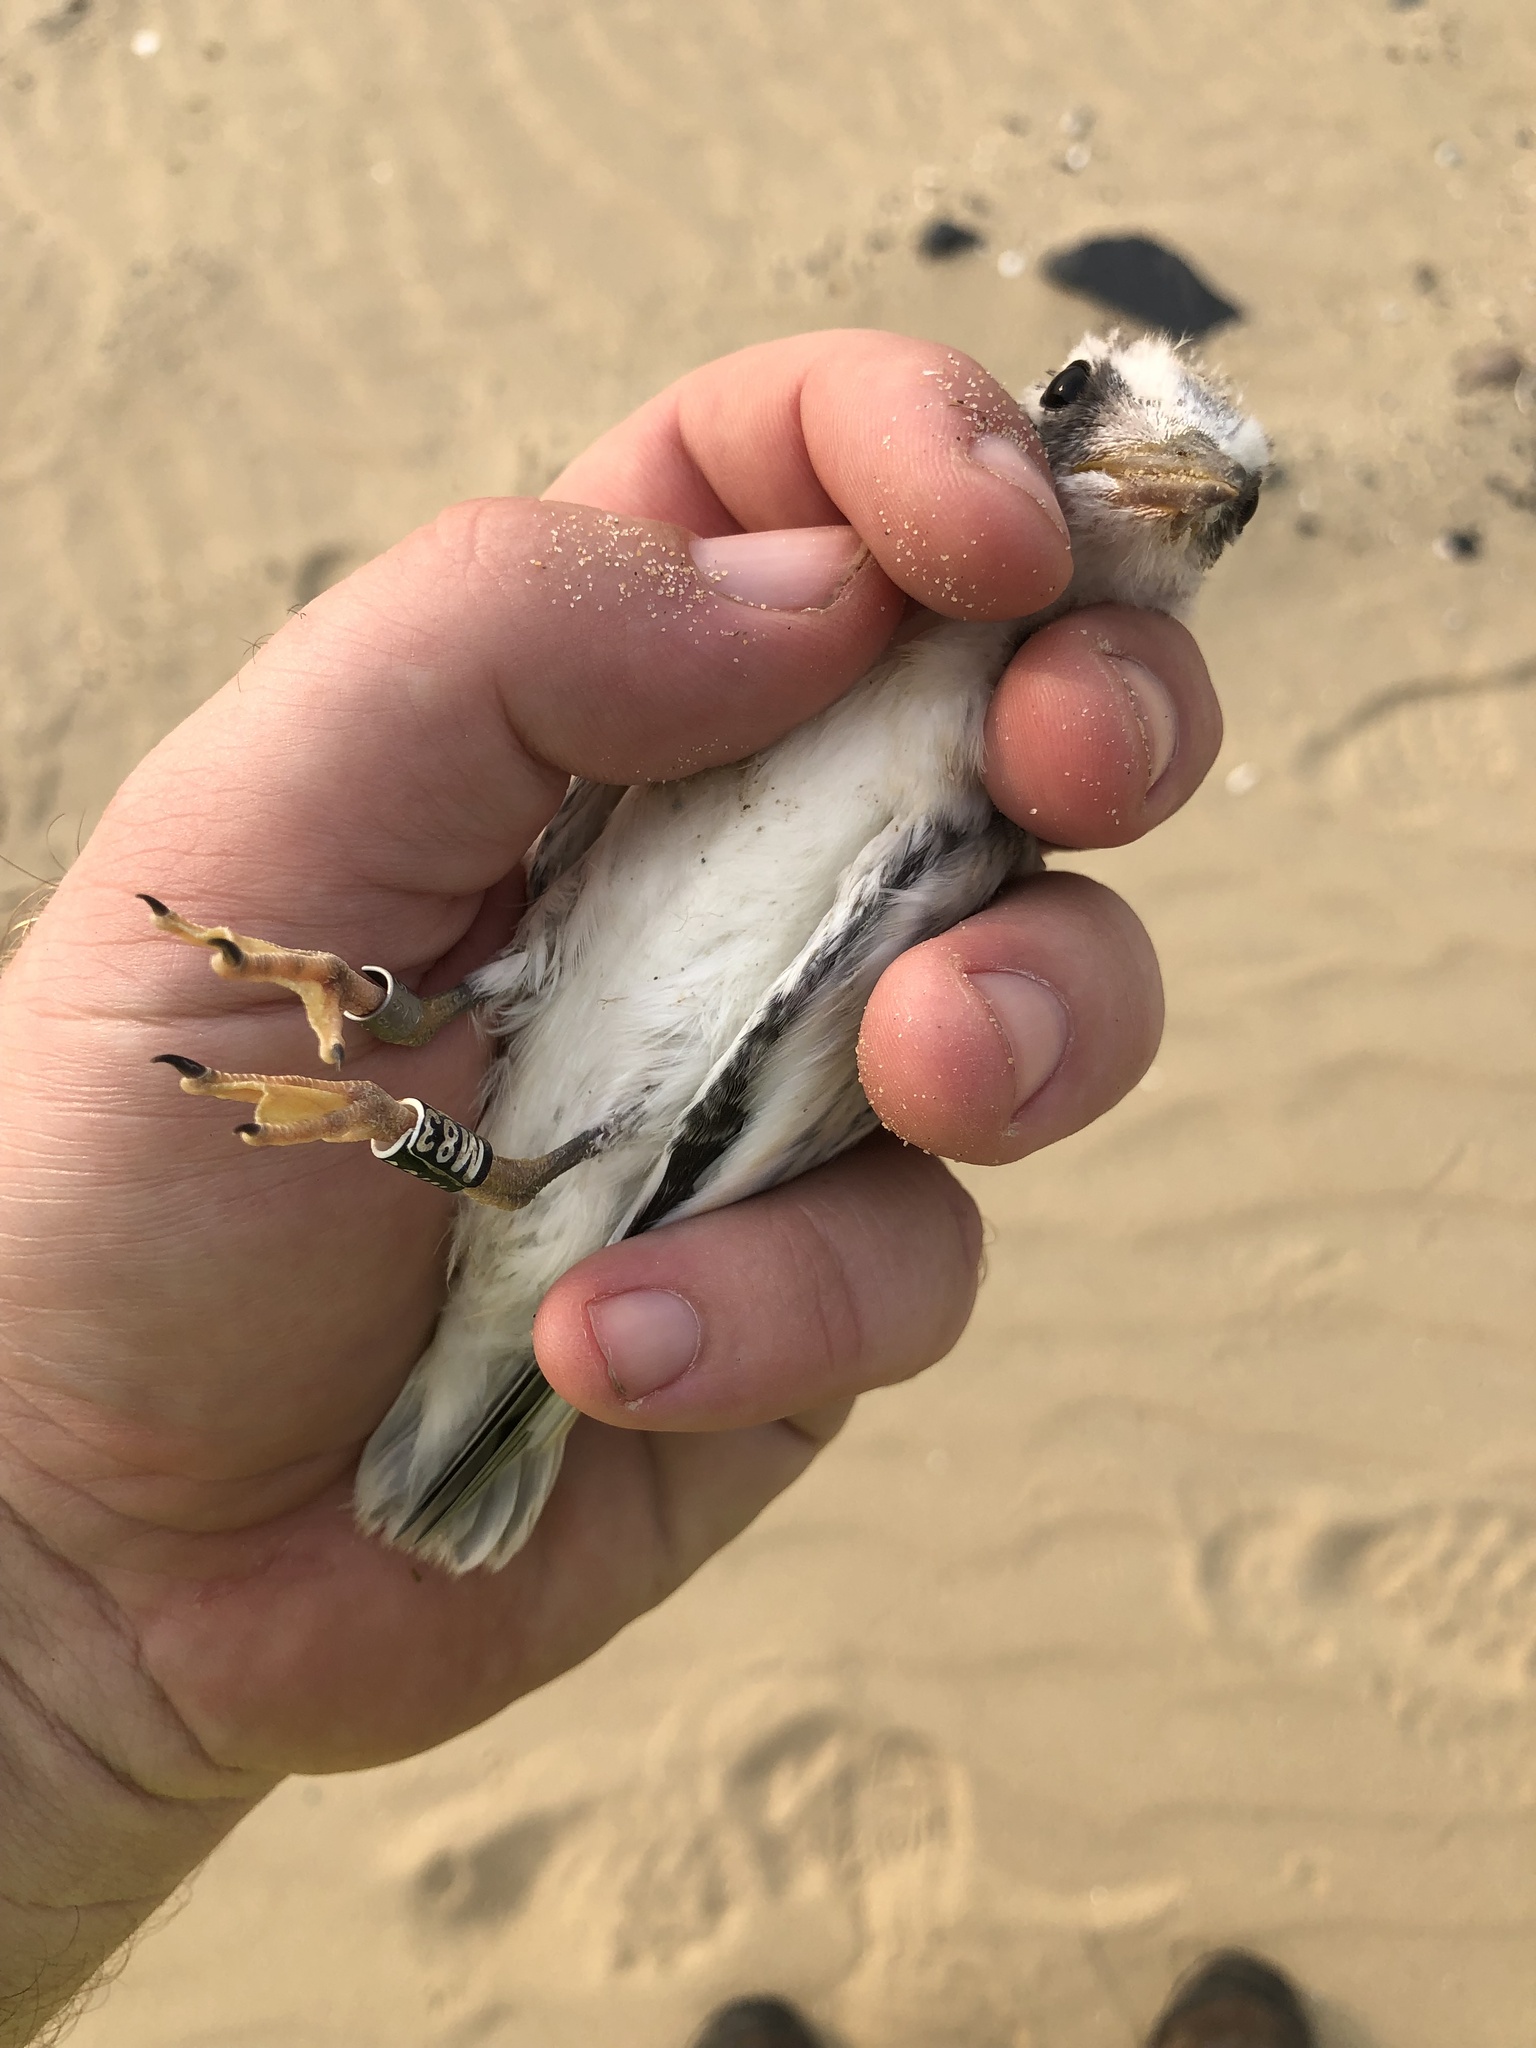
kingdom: Animalia
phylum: Chordata
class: Aves
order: Charadriiformes
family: Laridae
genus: Sterna
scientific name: Sterna hirundo
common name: Common tern
